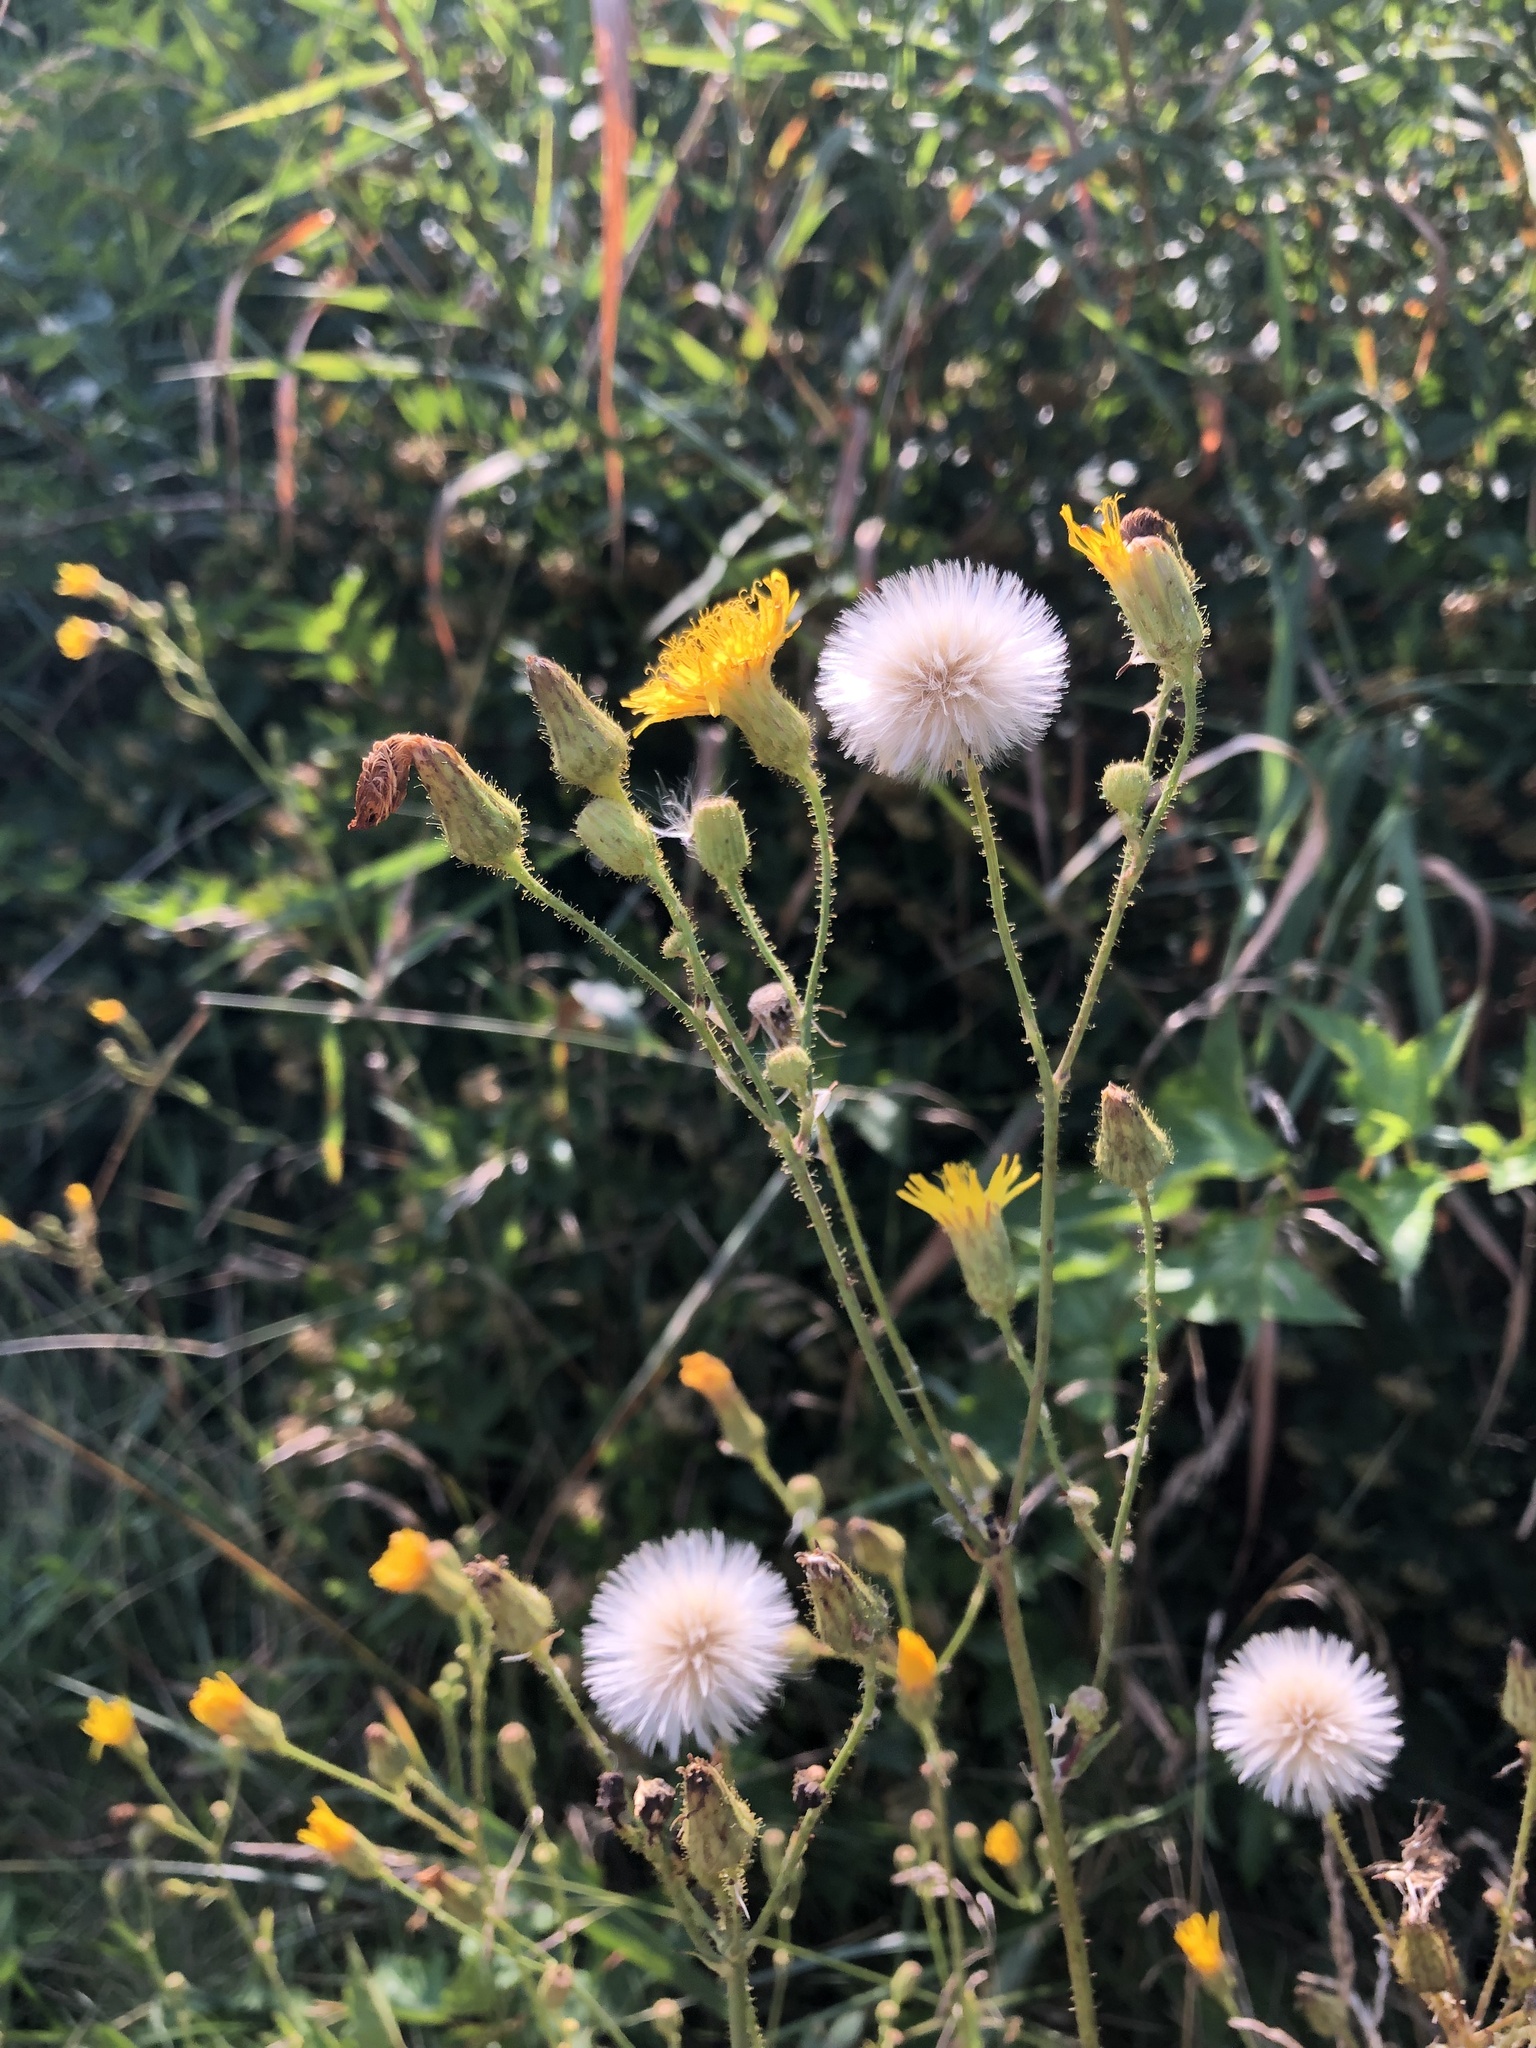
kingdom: Plantae
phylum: Tracheophyta
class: Magnoliopsida
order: Asterales
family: Asteraceae
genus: Sonchus
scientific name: Sonchus arvensis
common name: Perennial sow-thistle
